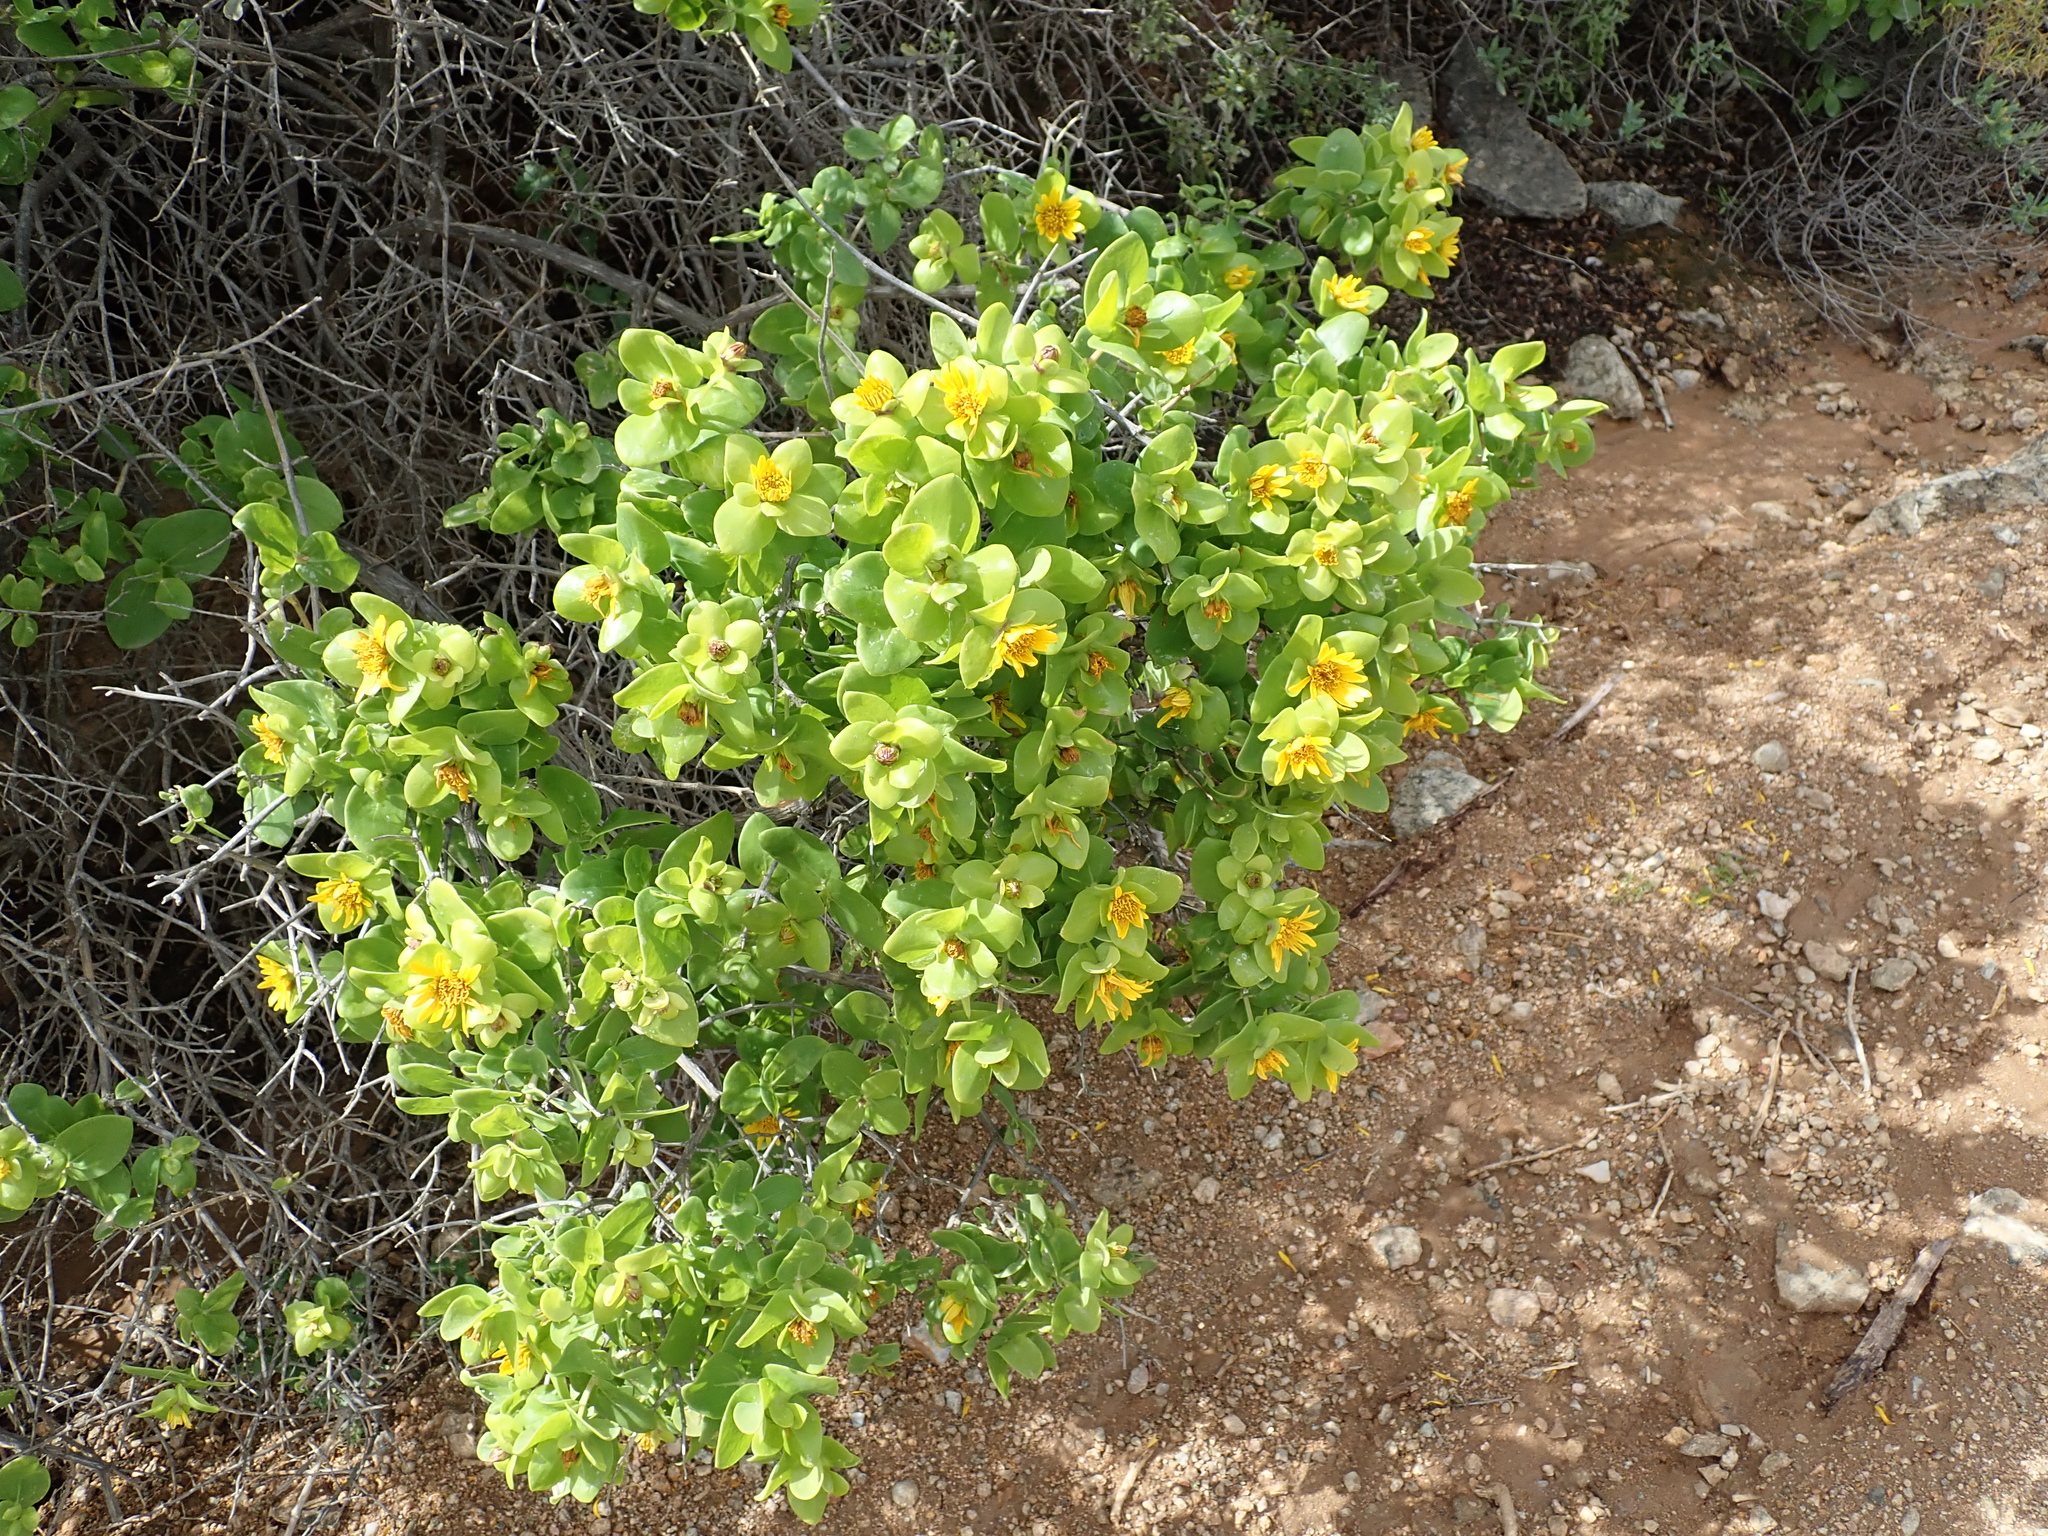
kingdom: Plantae
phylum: Tracheophyta
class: Magnoliopsida
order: Asterales
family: Asteraceae
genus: Didelta
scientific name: Didelta spinosa
